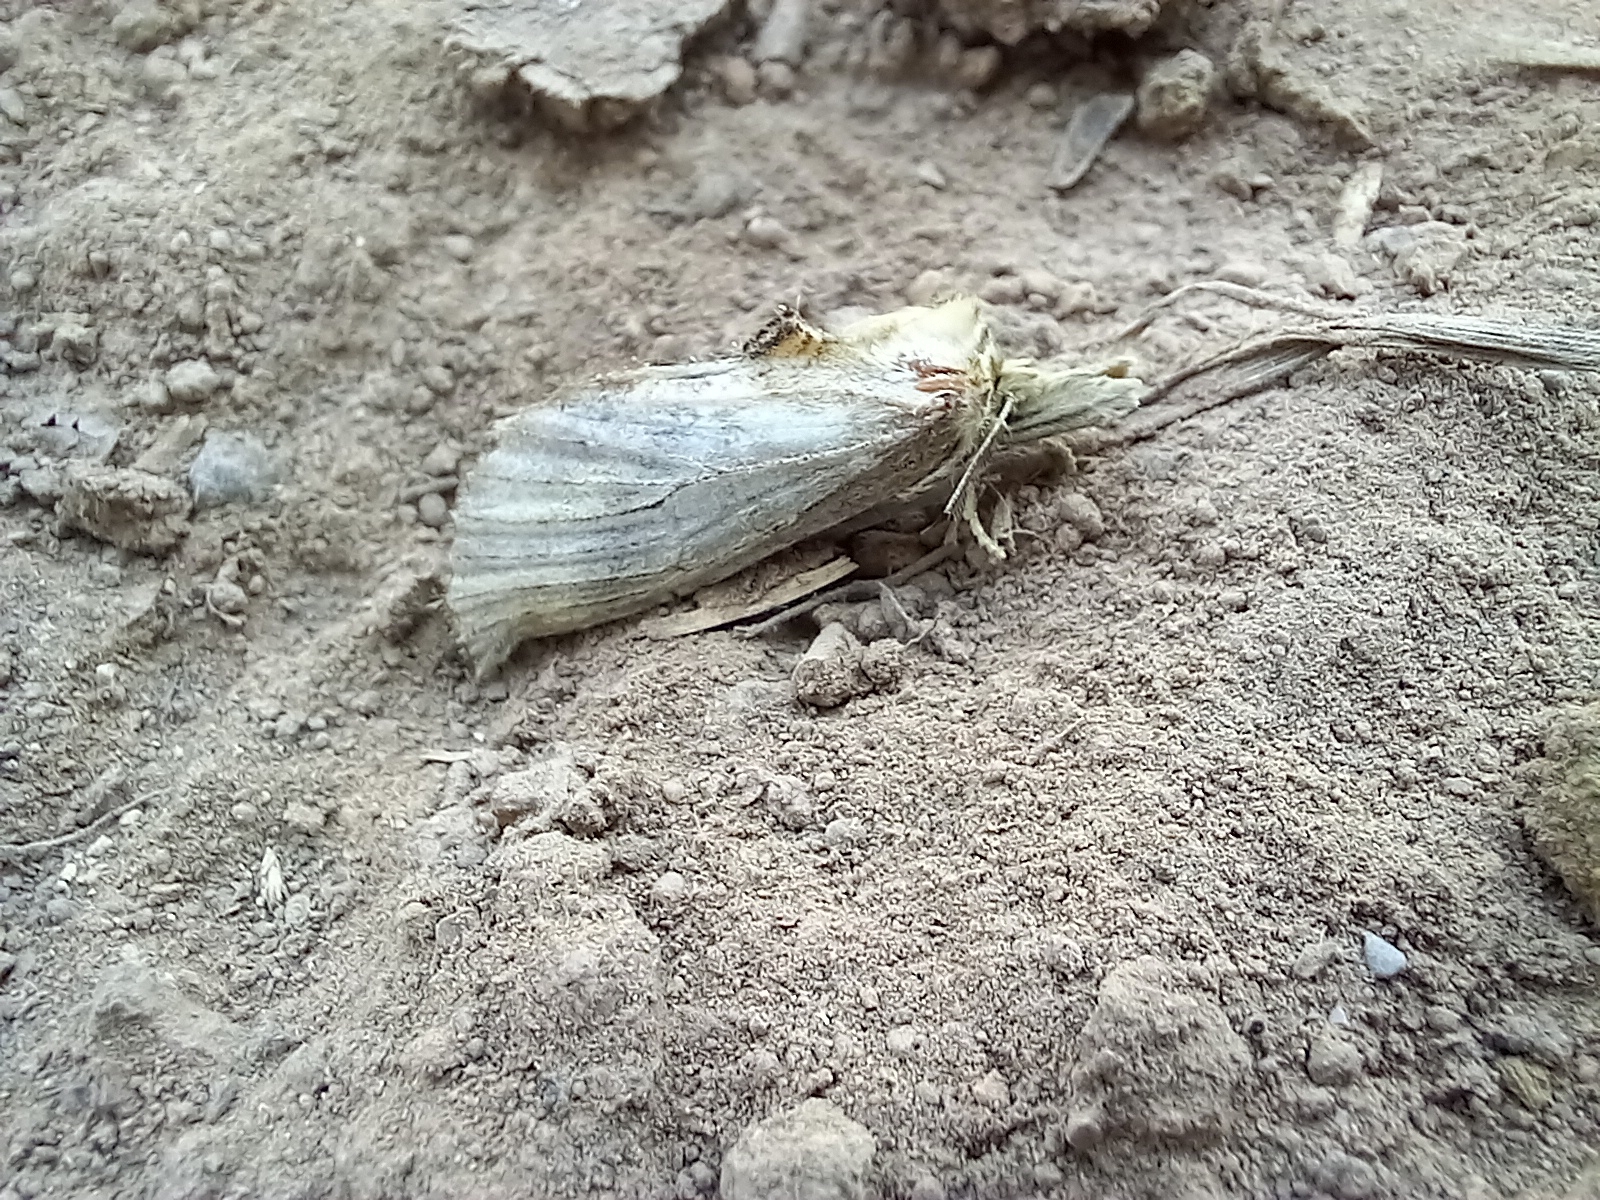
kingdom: Animalia
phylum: Arthropoda
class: Insecta
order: Lepidoptera
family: Notodontidae
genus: Pterostoma
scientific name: Pterostoma palpina
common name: Pale prominent
